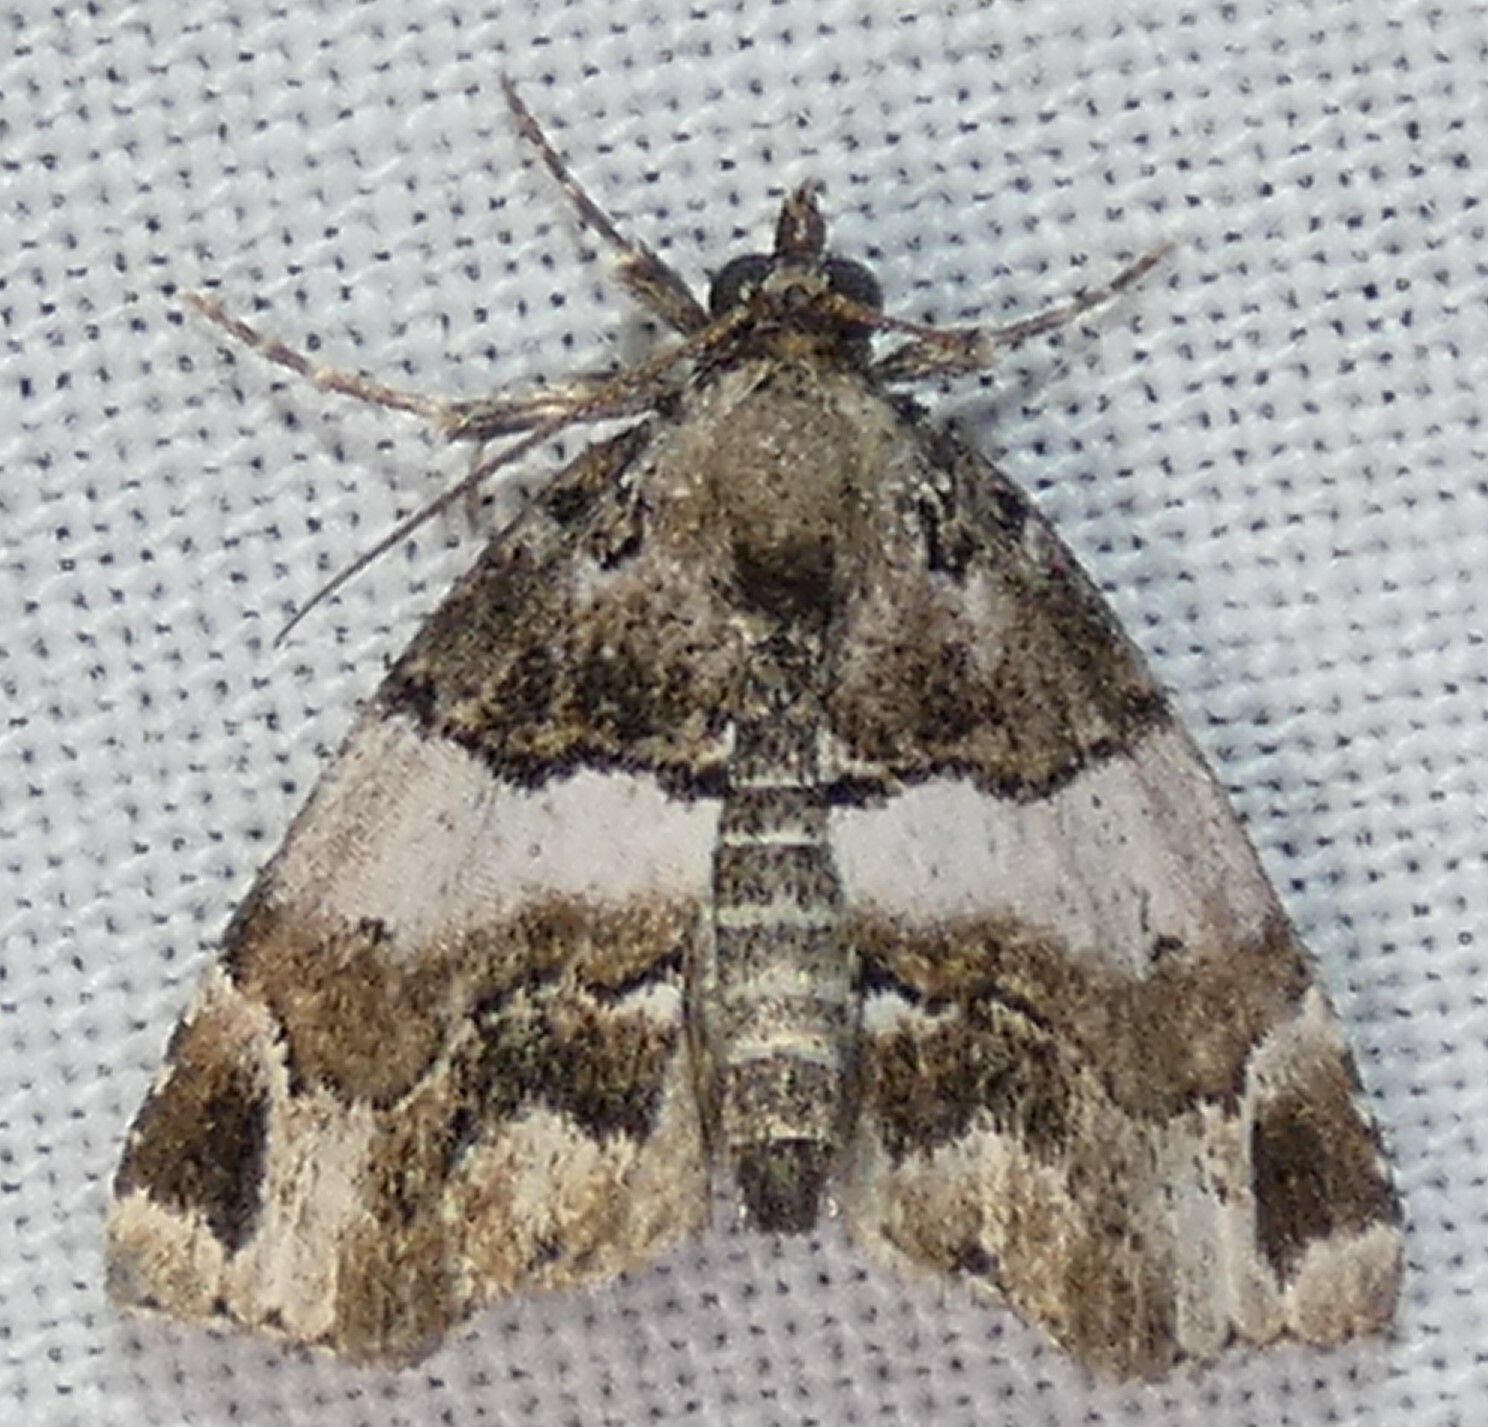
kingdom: Animalia
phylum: Arthropoda
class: Insecta
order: Lepidoptera
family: Erebidae
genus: Cutina
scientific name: Cutina distincta
